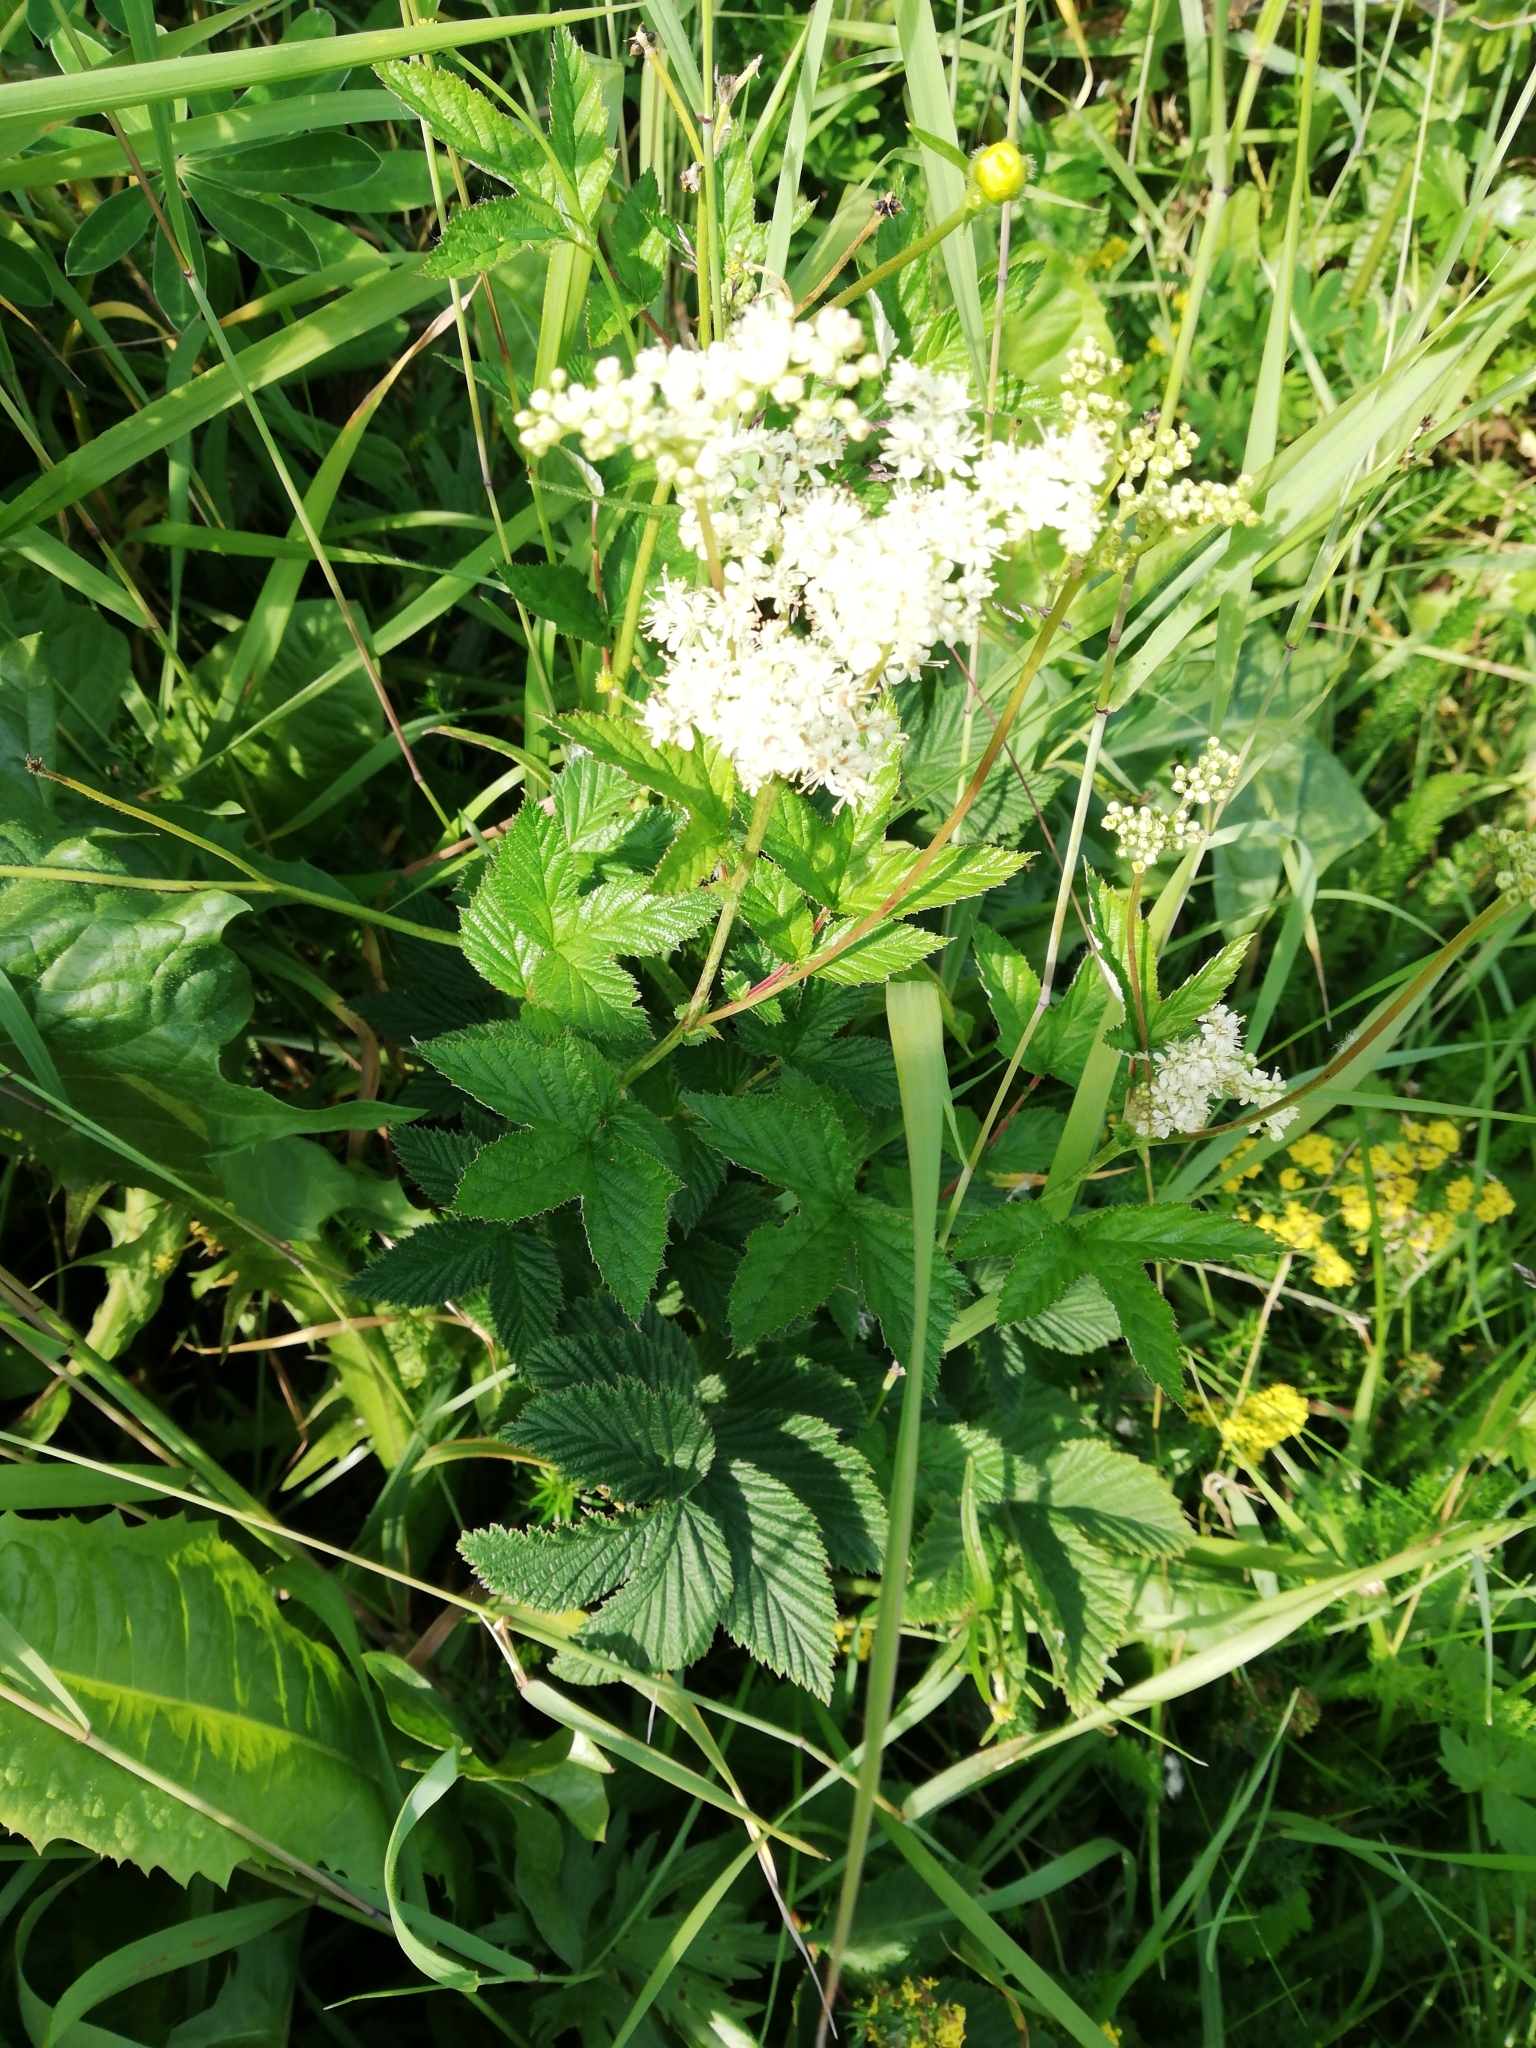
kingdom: Plantae
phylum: Tracheophyta
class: Magnoliopsida
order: Rosales
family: Rosaceae
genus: Filipendula
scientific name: Filipendula ulmaria
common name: Meadowsweet
